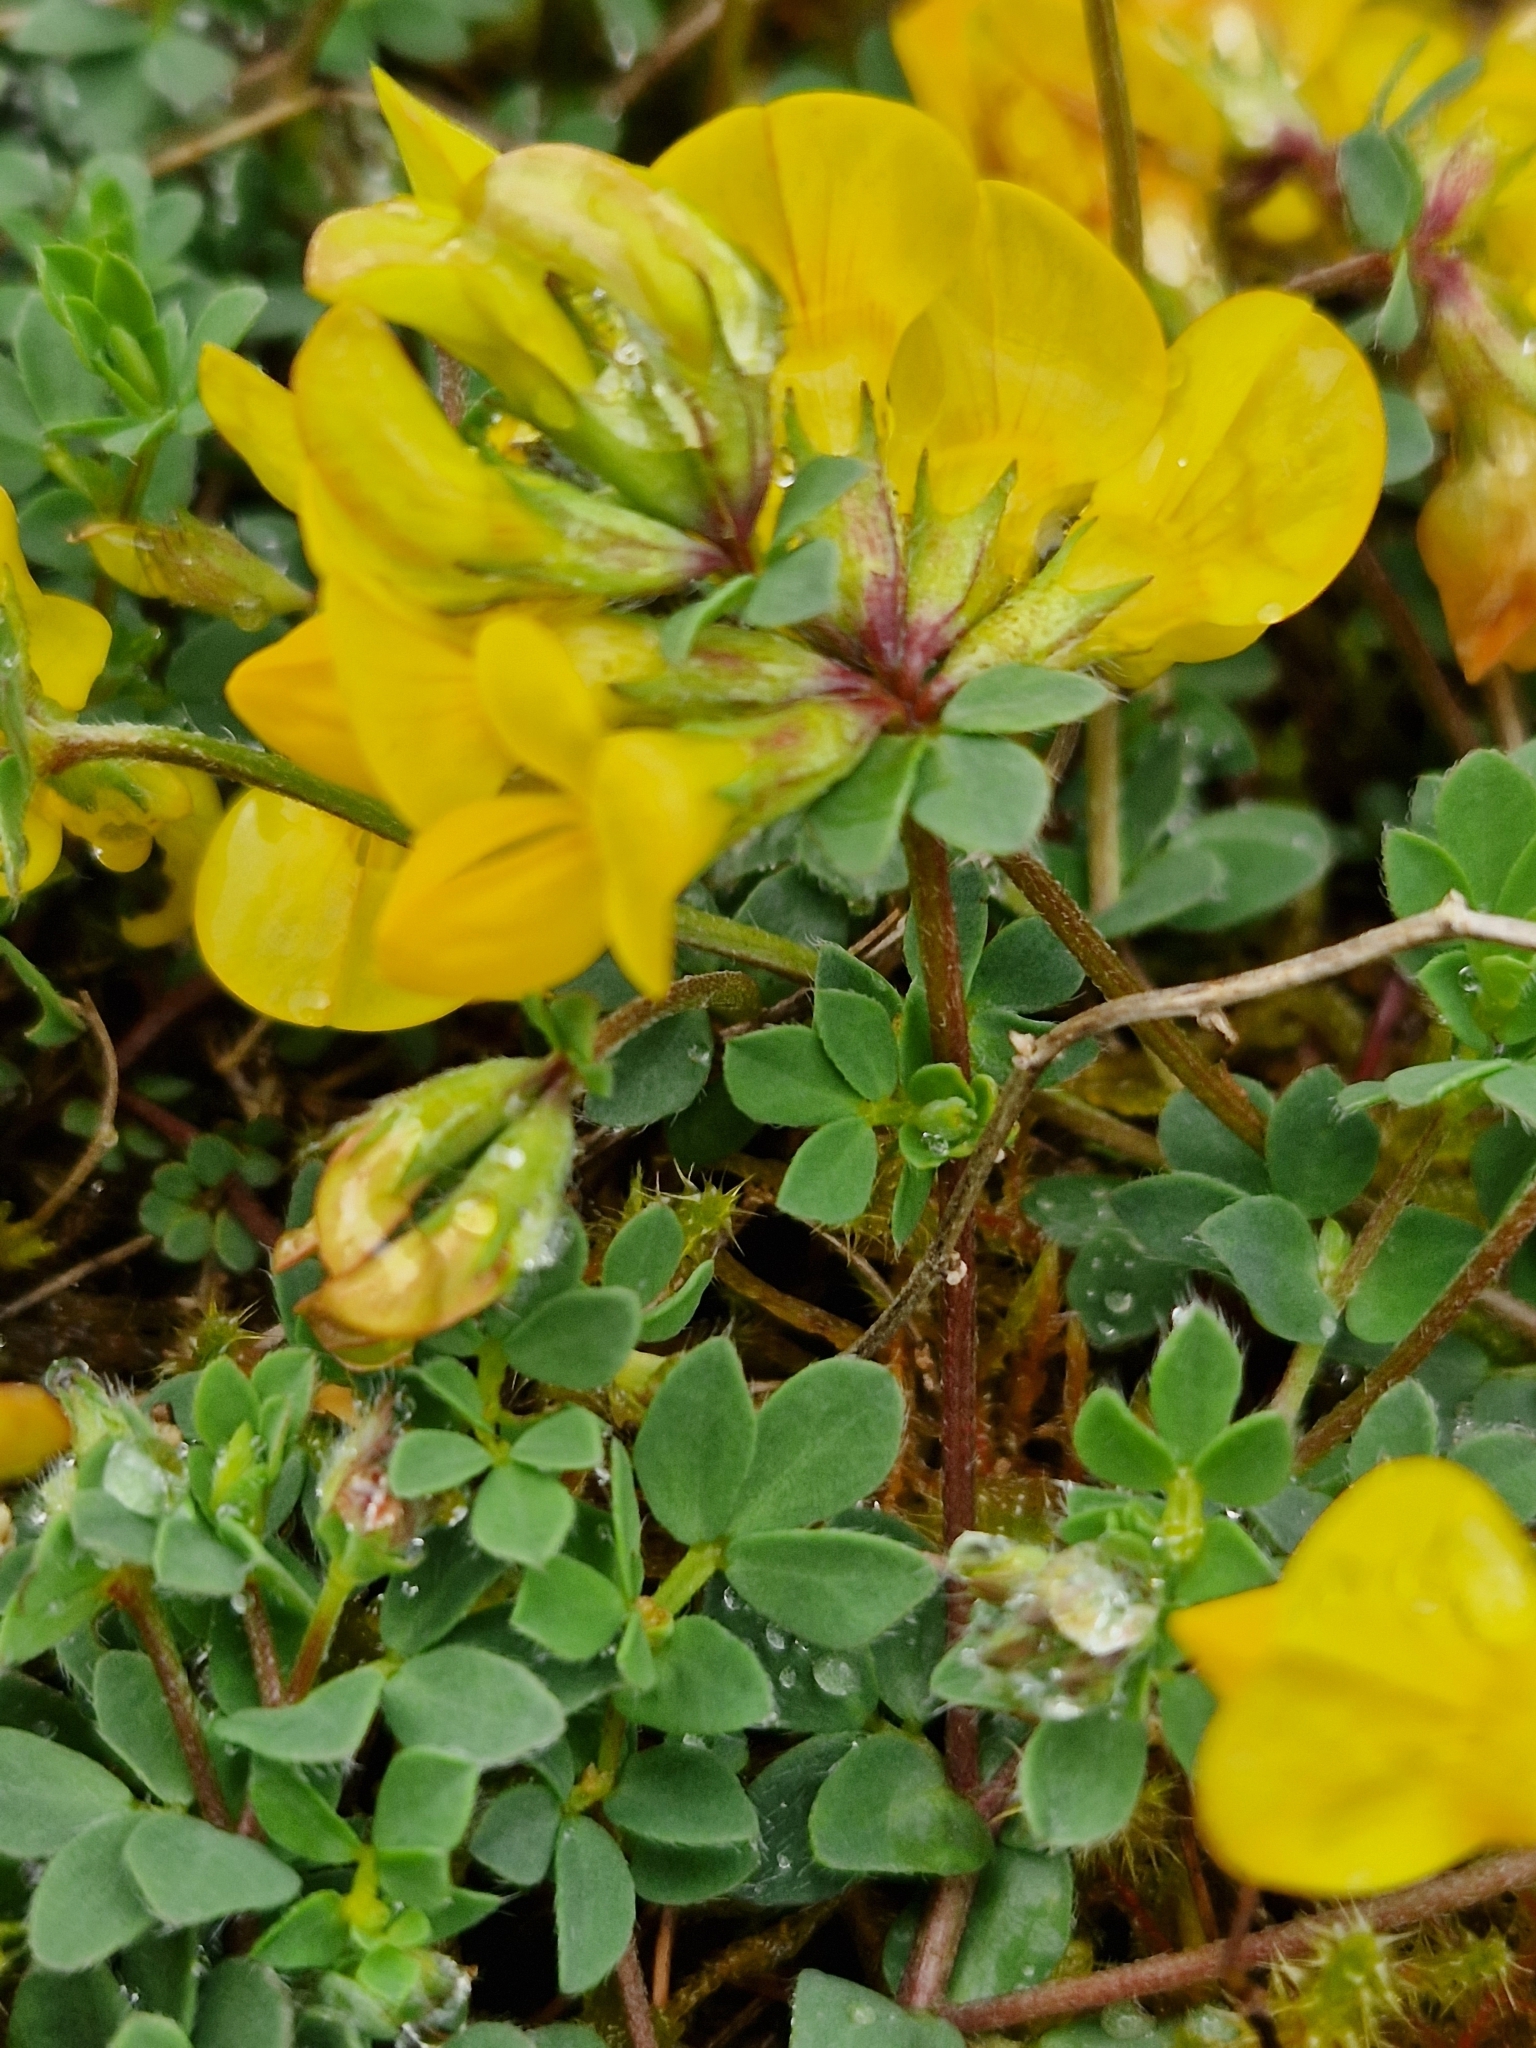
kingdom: Plantae
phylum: Tracheophyta
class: Magnoliopsida
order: Fabales
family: Fabaceae
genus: Lotus
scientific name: Lotus corniculatus
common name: Common bird's-foot-trefoil
